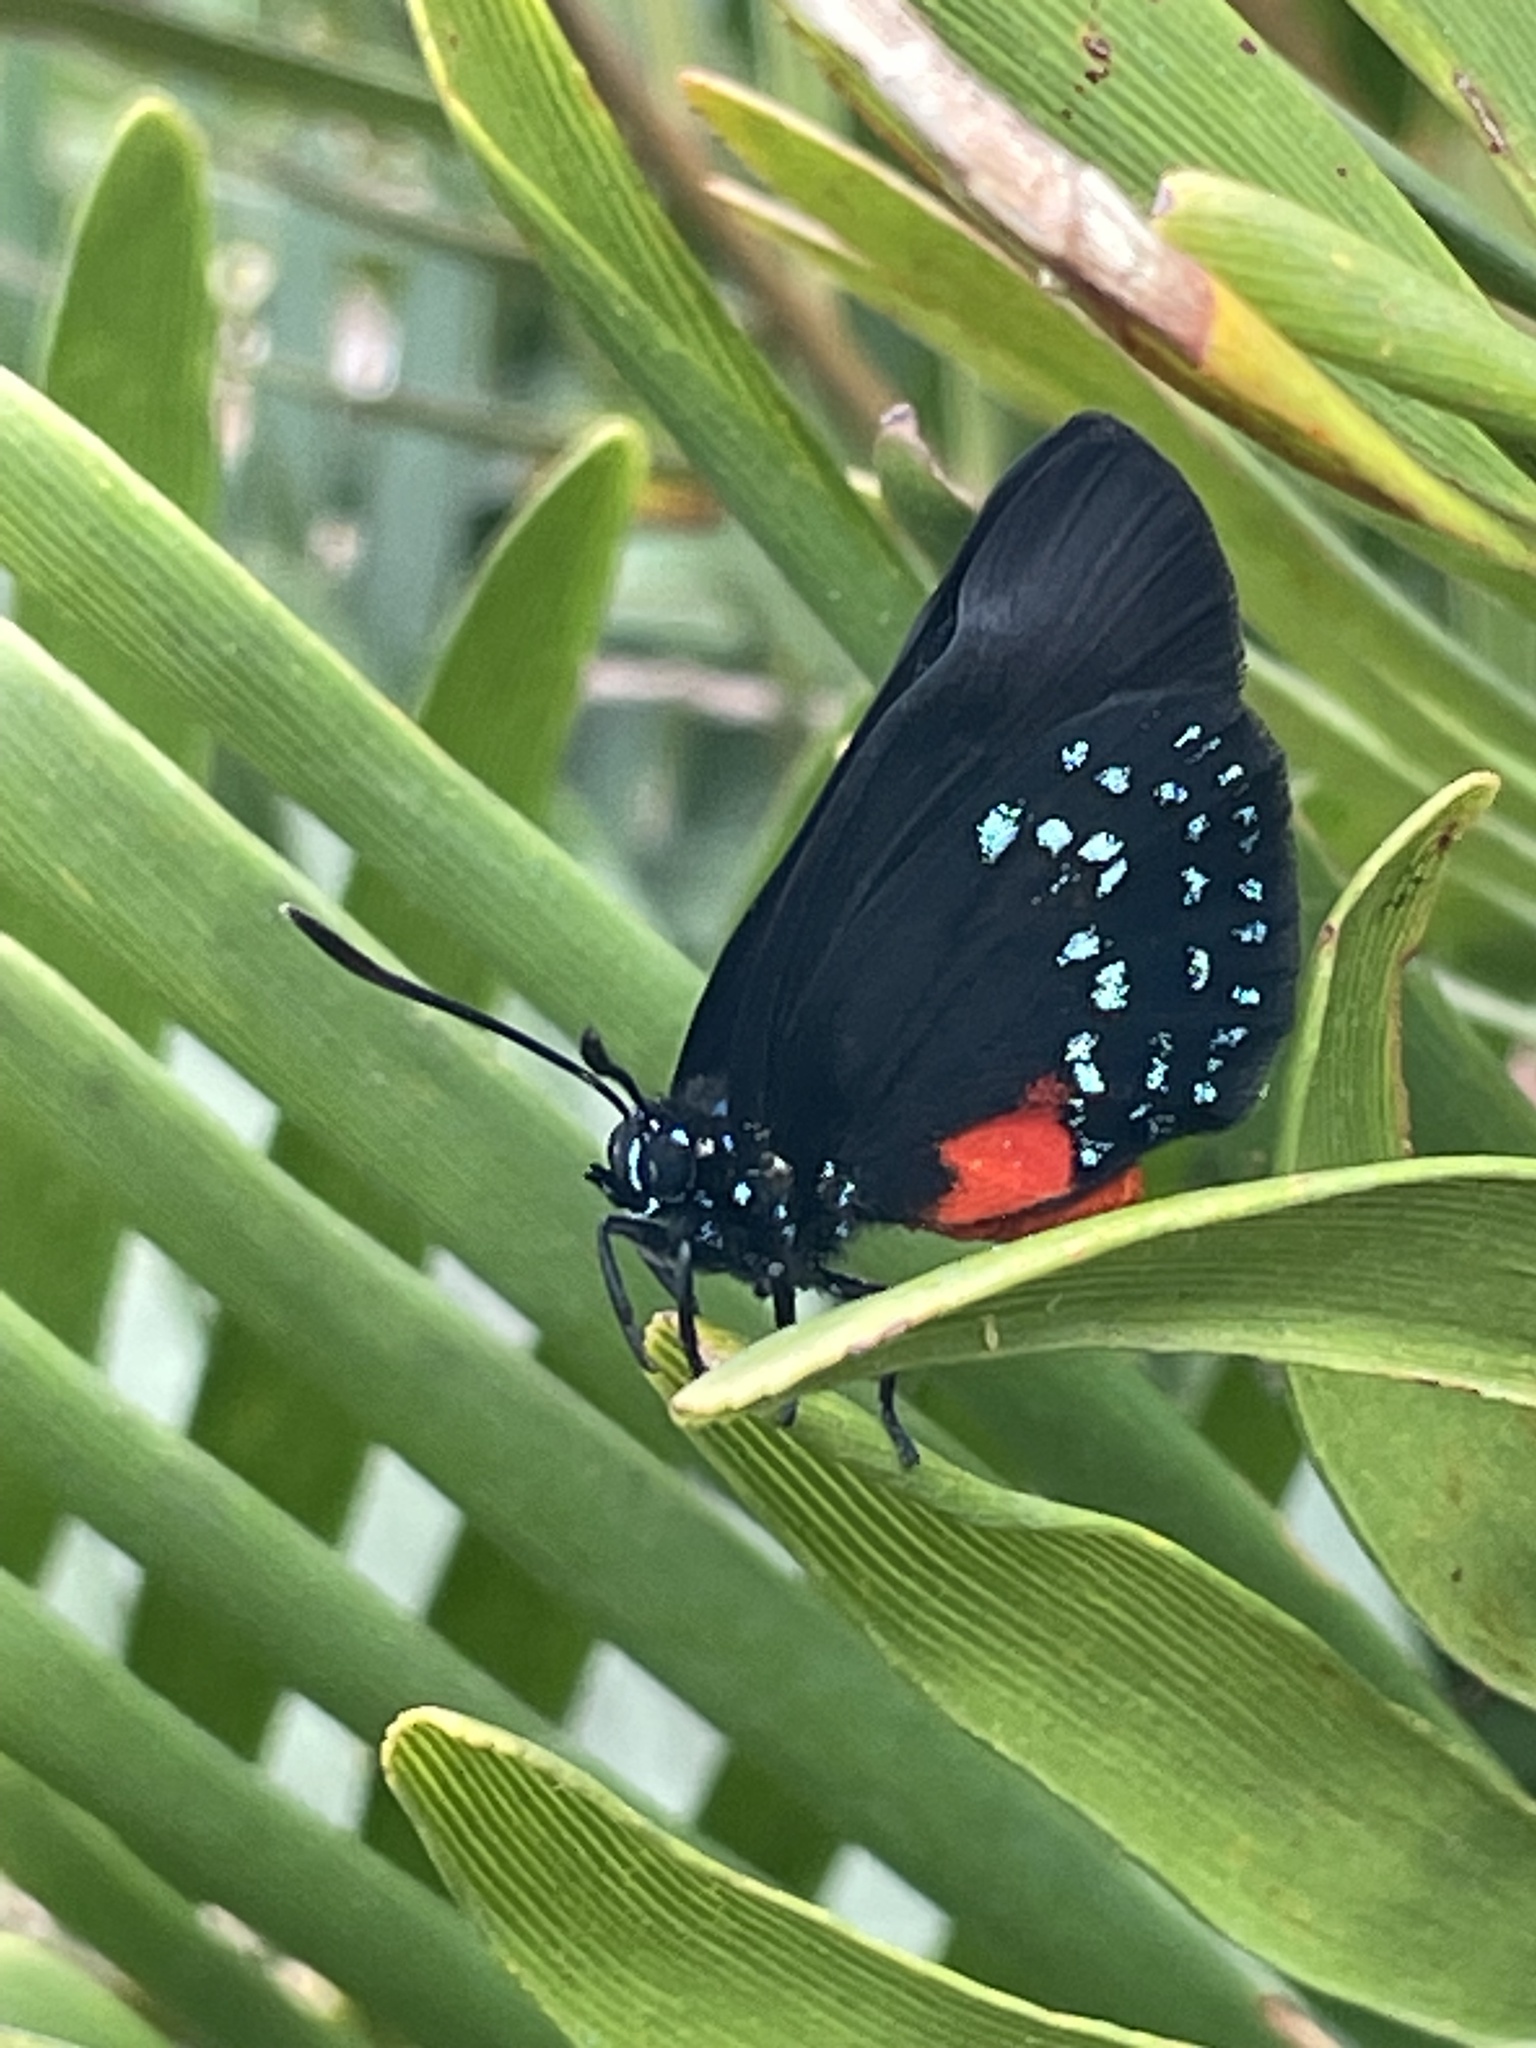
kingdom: Animalia
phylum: Arthropoda
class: Insecta
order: Lepidoptera
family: Lycaenidae
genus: Eumaeus
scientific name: Eumaeus atala
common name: Atala
